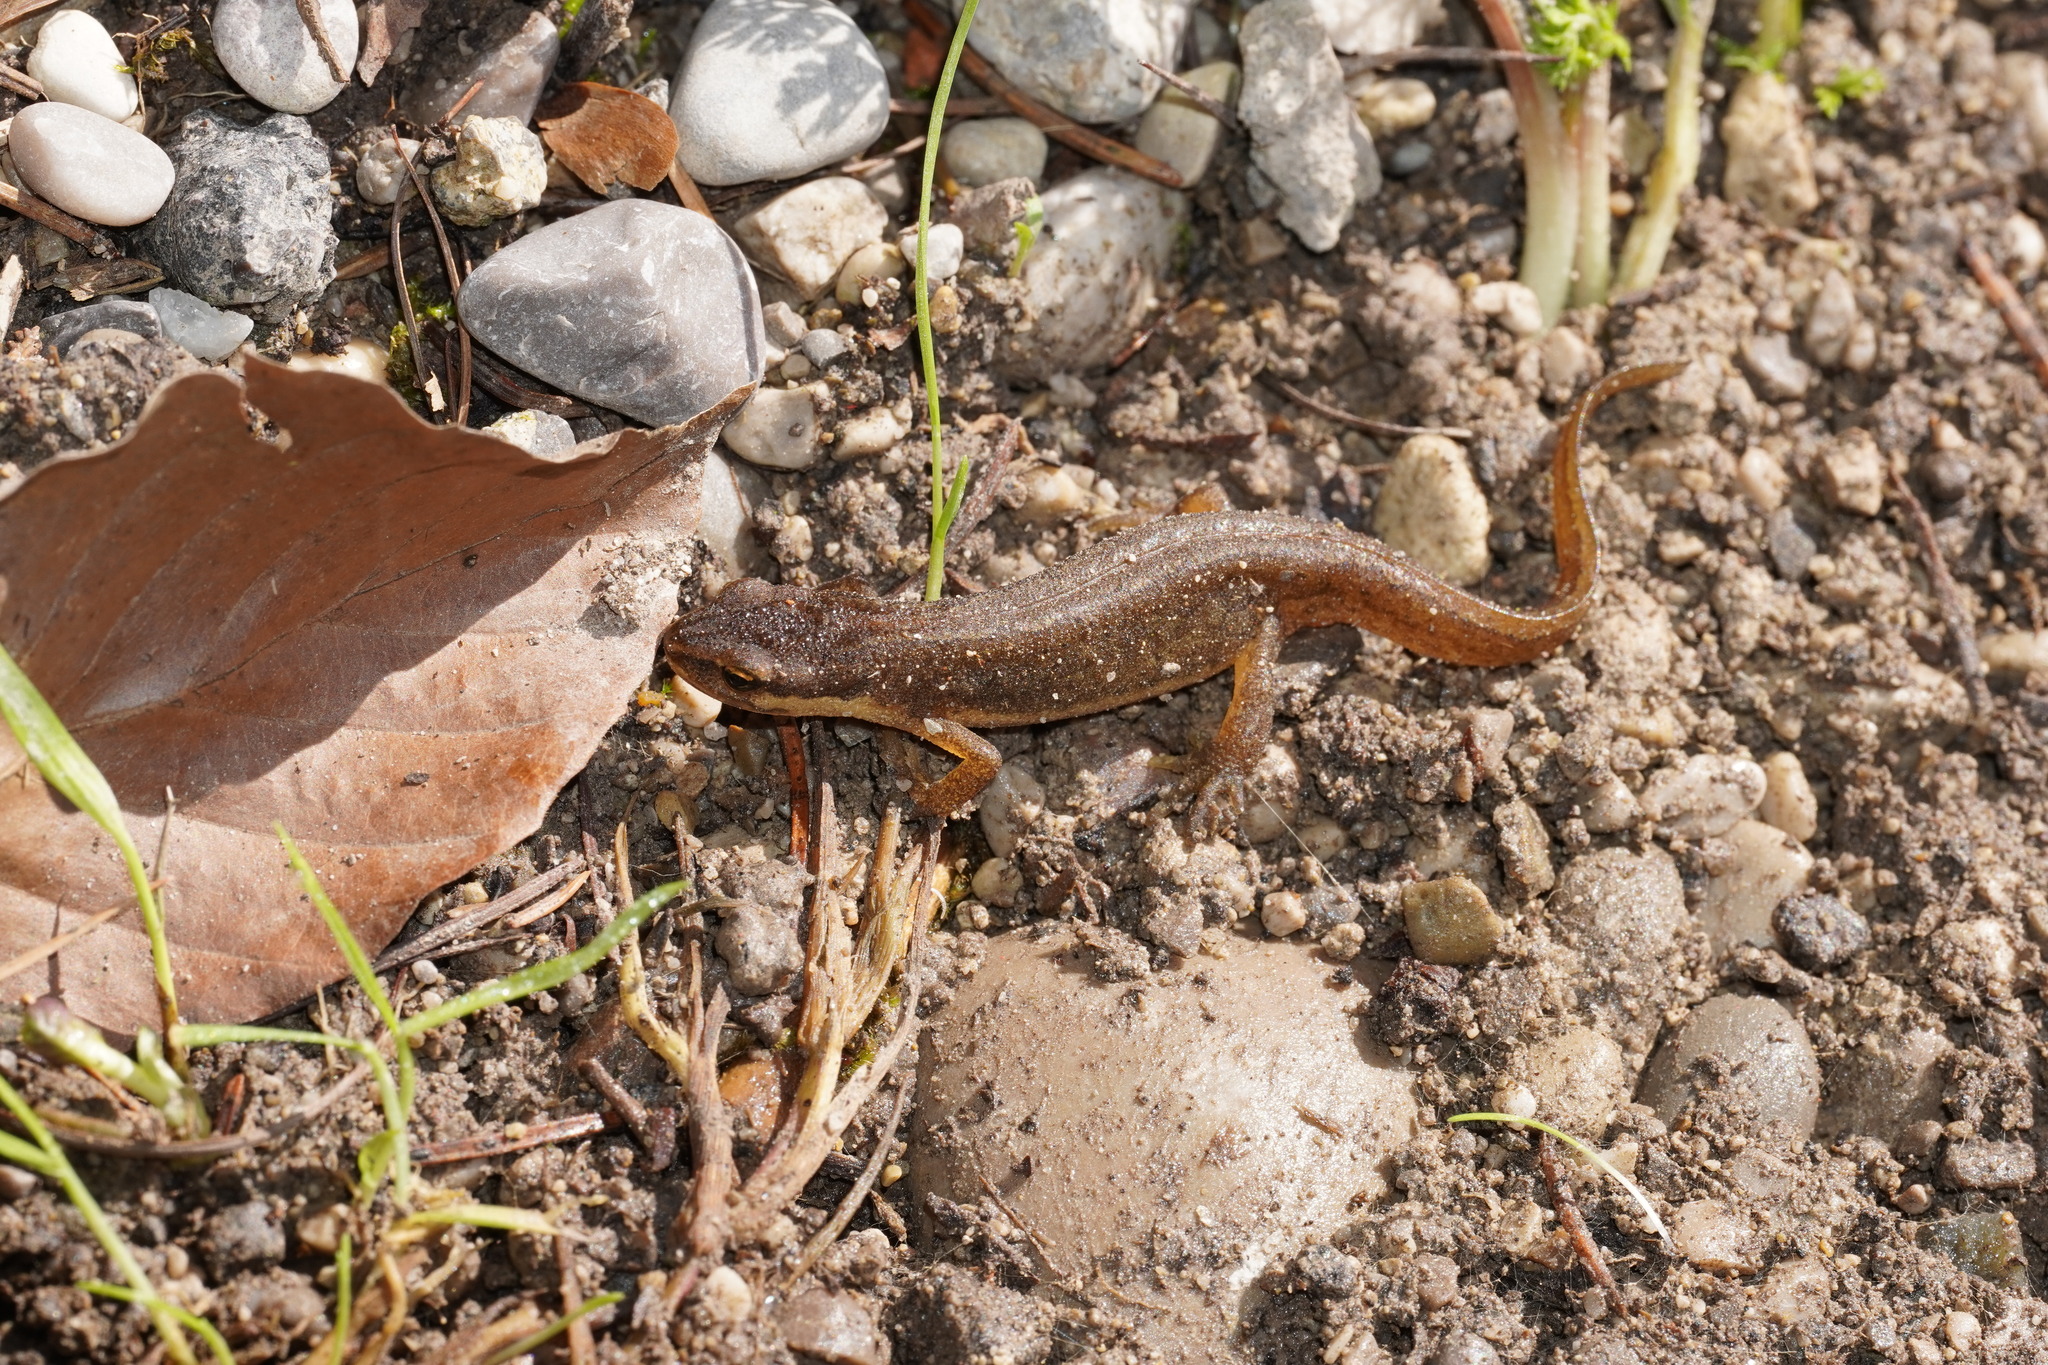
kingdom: Animalia
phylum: Chordata
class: Amphibia
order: Caudata
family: Salamandridae
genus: Lissotriton
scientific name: Lissotriton vulgaris
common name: Smooth newt
